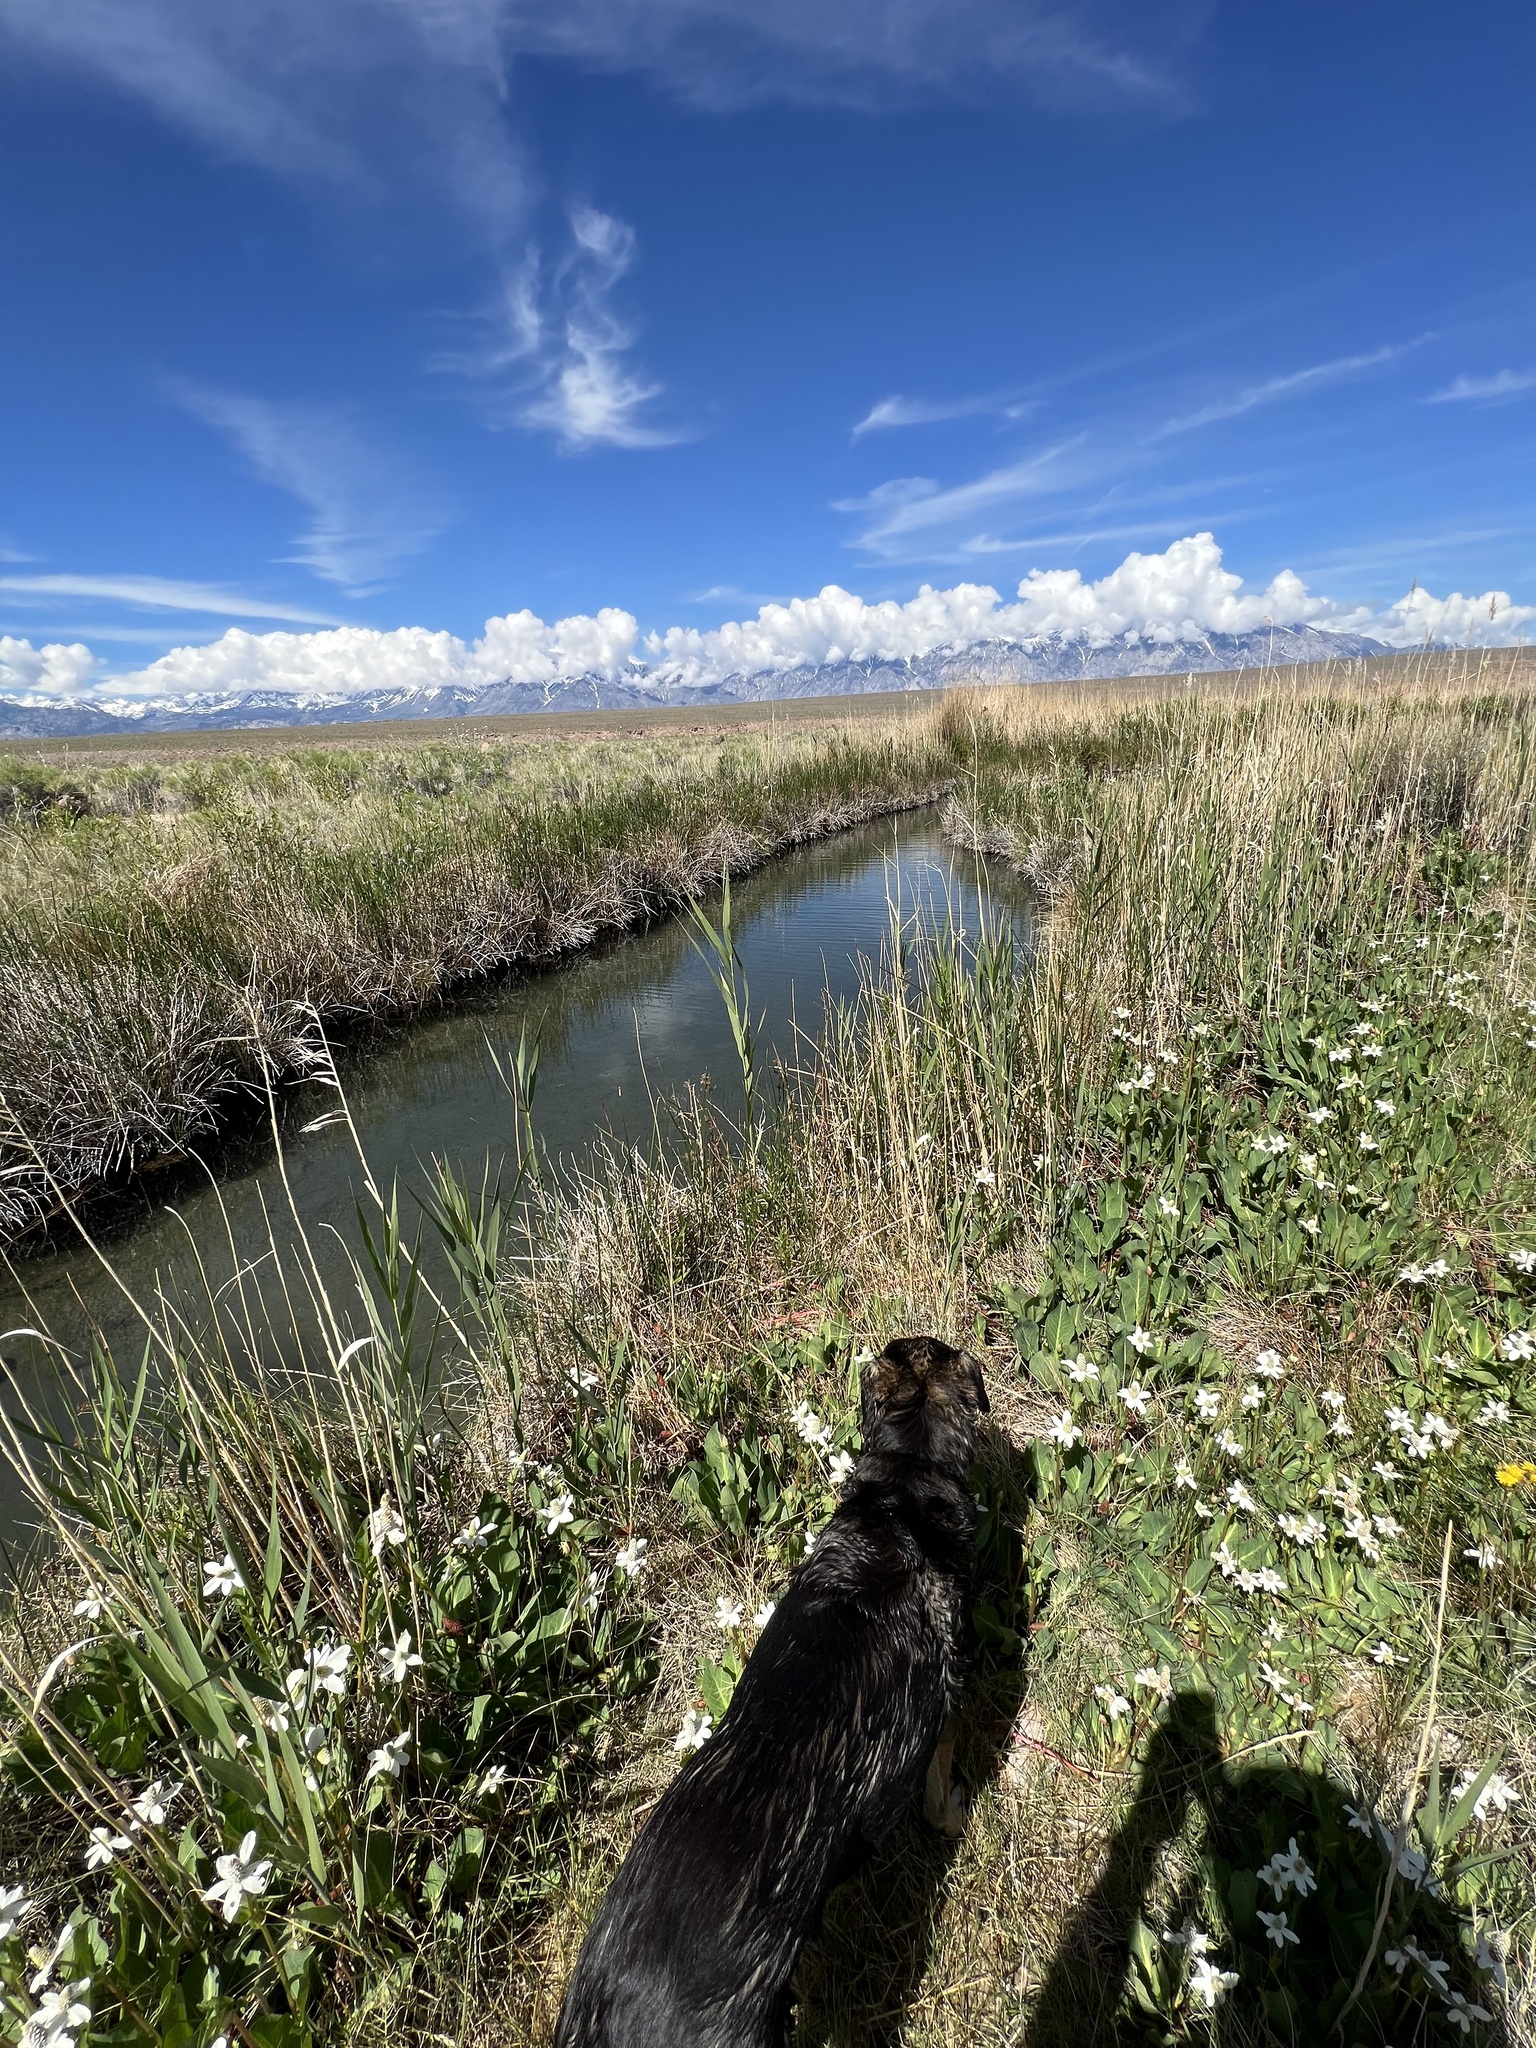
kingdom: Plantae
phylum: Tracheophyta
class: Magnoliopsida
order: Piperales
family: Saururaceae
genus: Anemopsis
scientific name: Anemopsis californica
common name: Apache-beads
